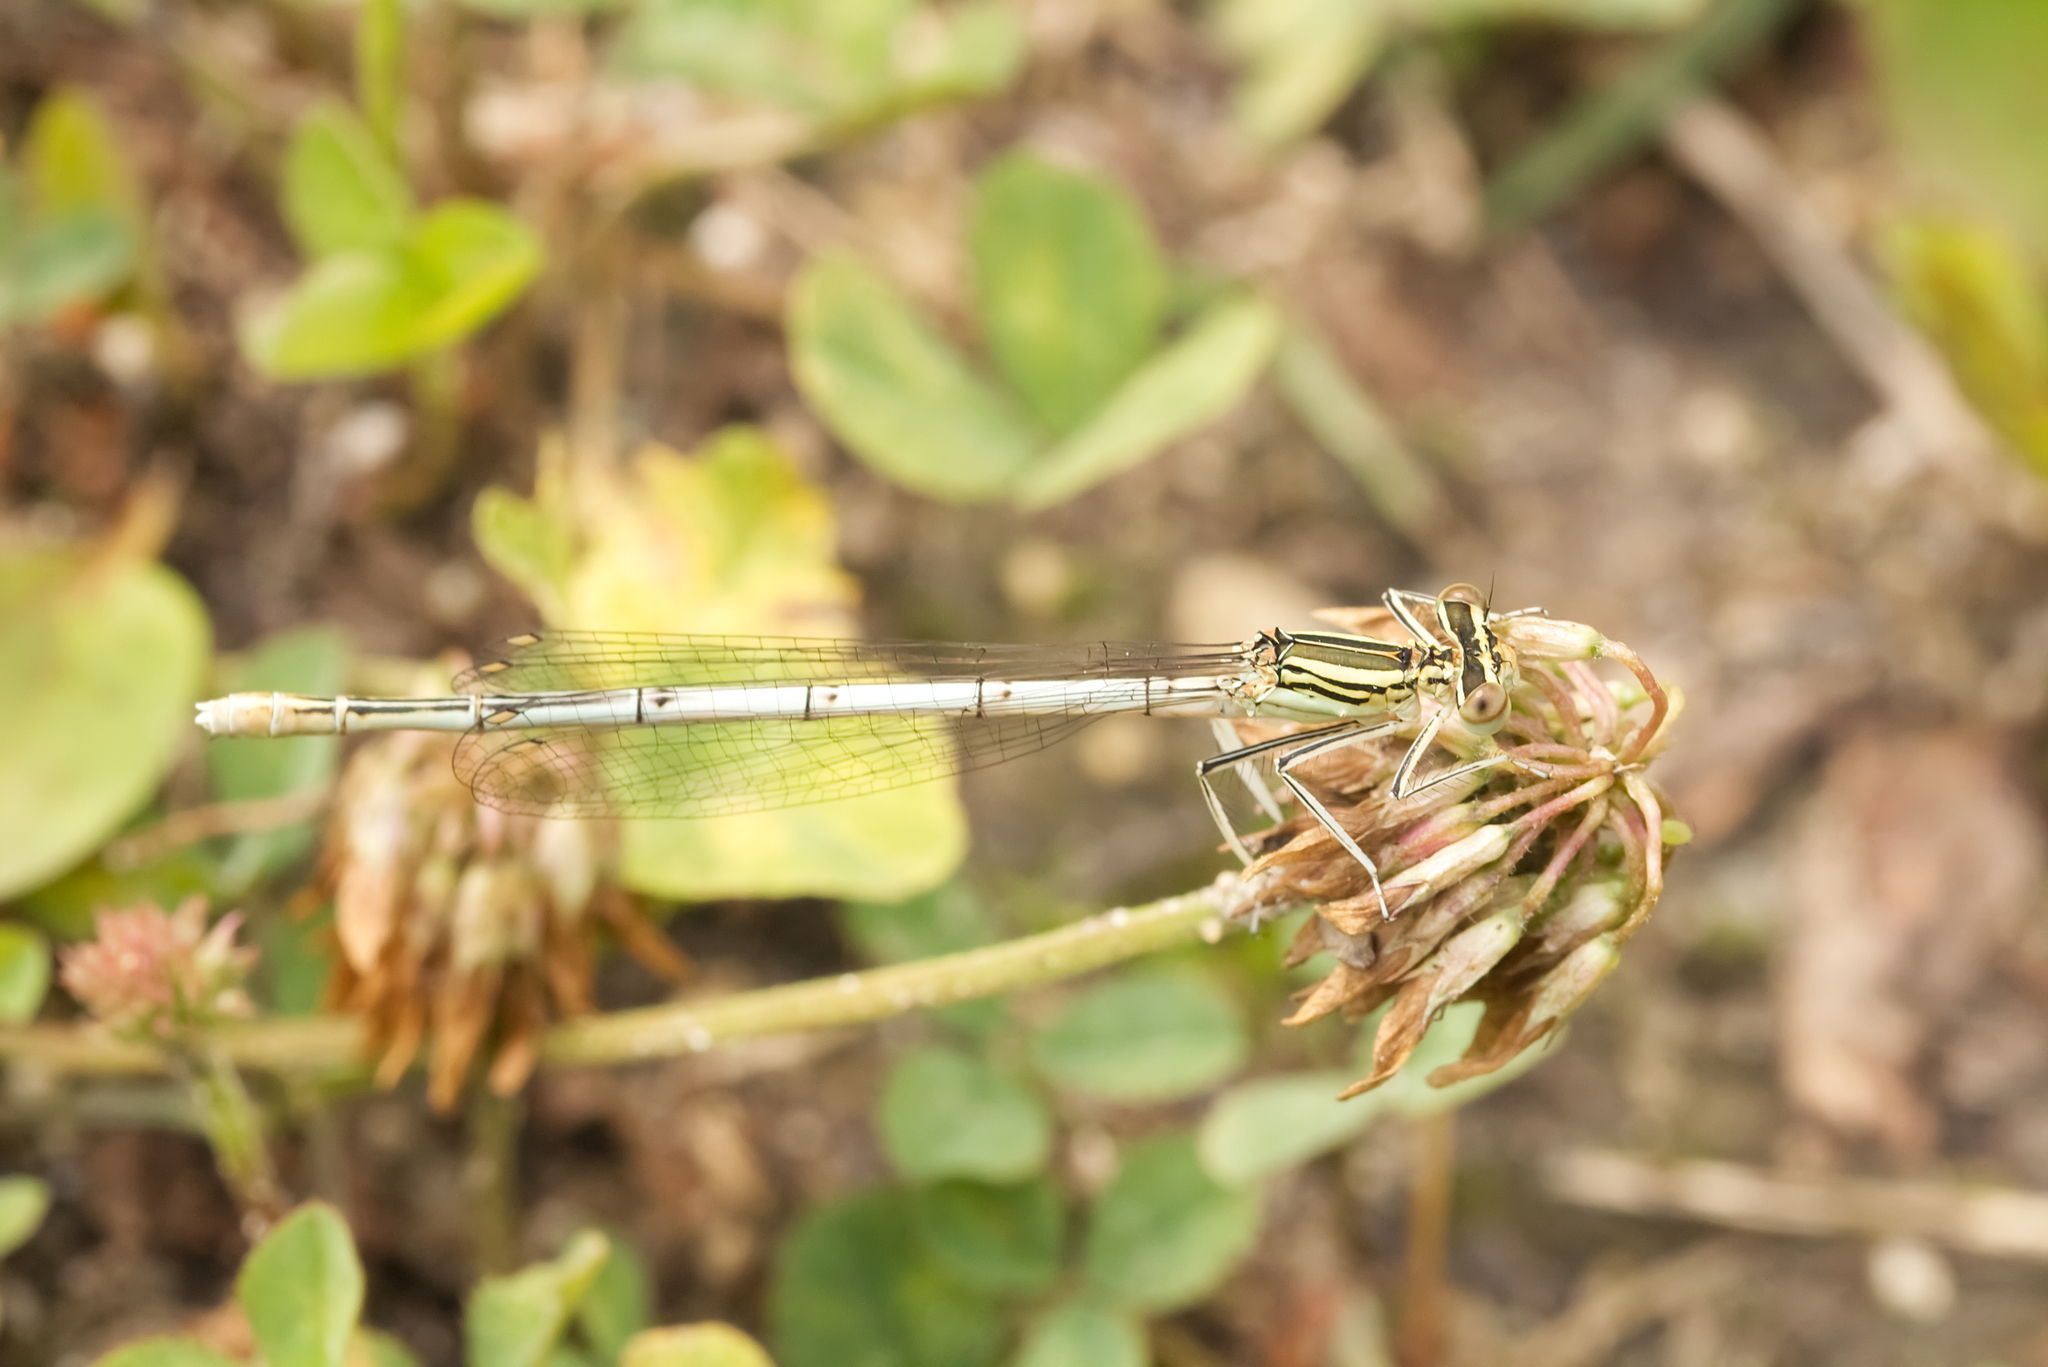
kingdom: Animalia
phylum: Arthropoda
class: Insecta
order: Odonata
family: Platycnemididae
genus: Platycnemis
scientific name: Platycnemis pennipes
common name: White-legged damselfly
